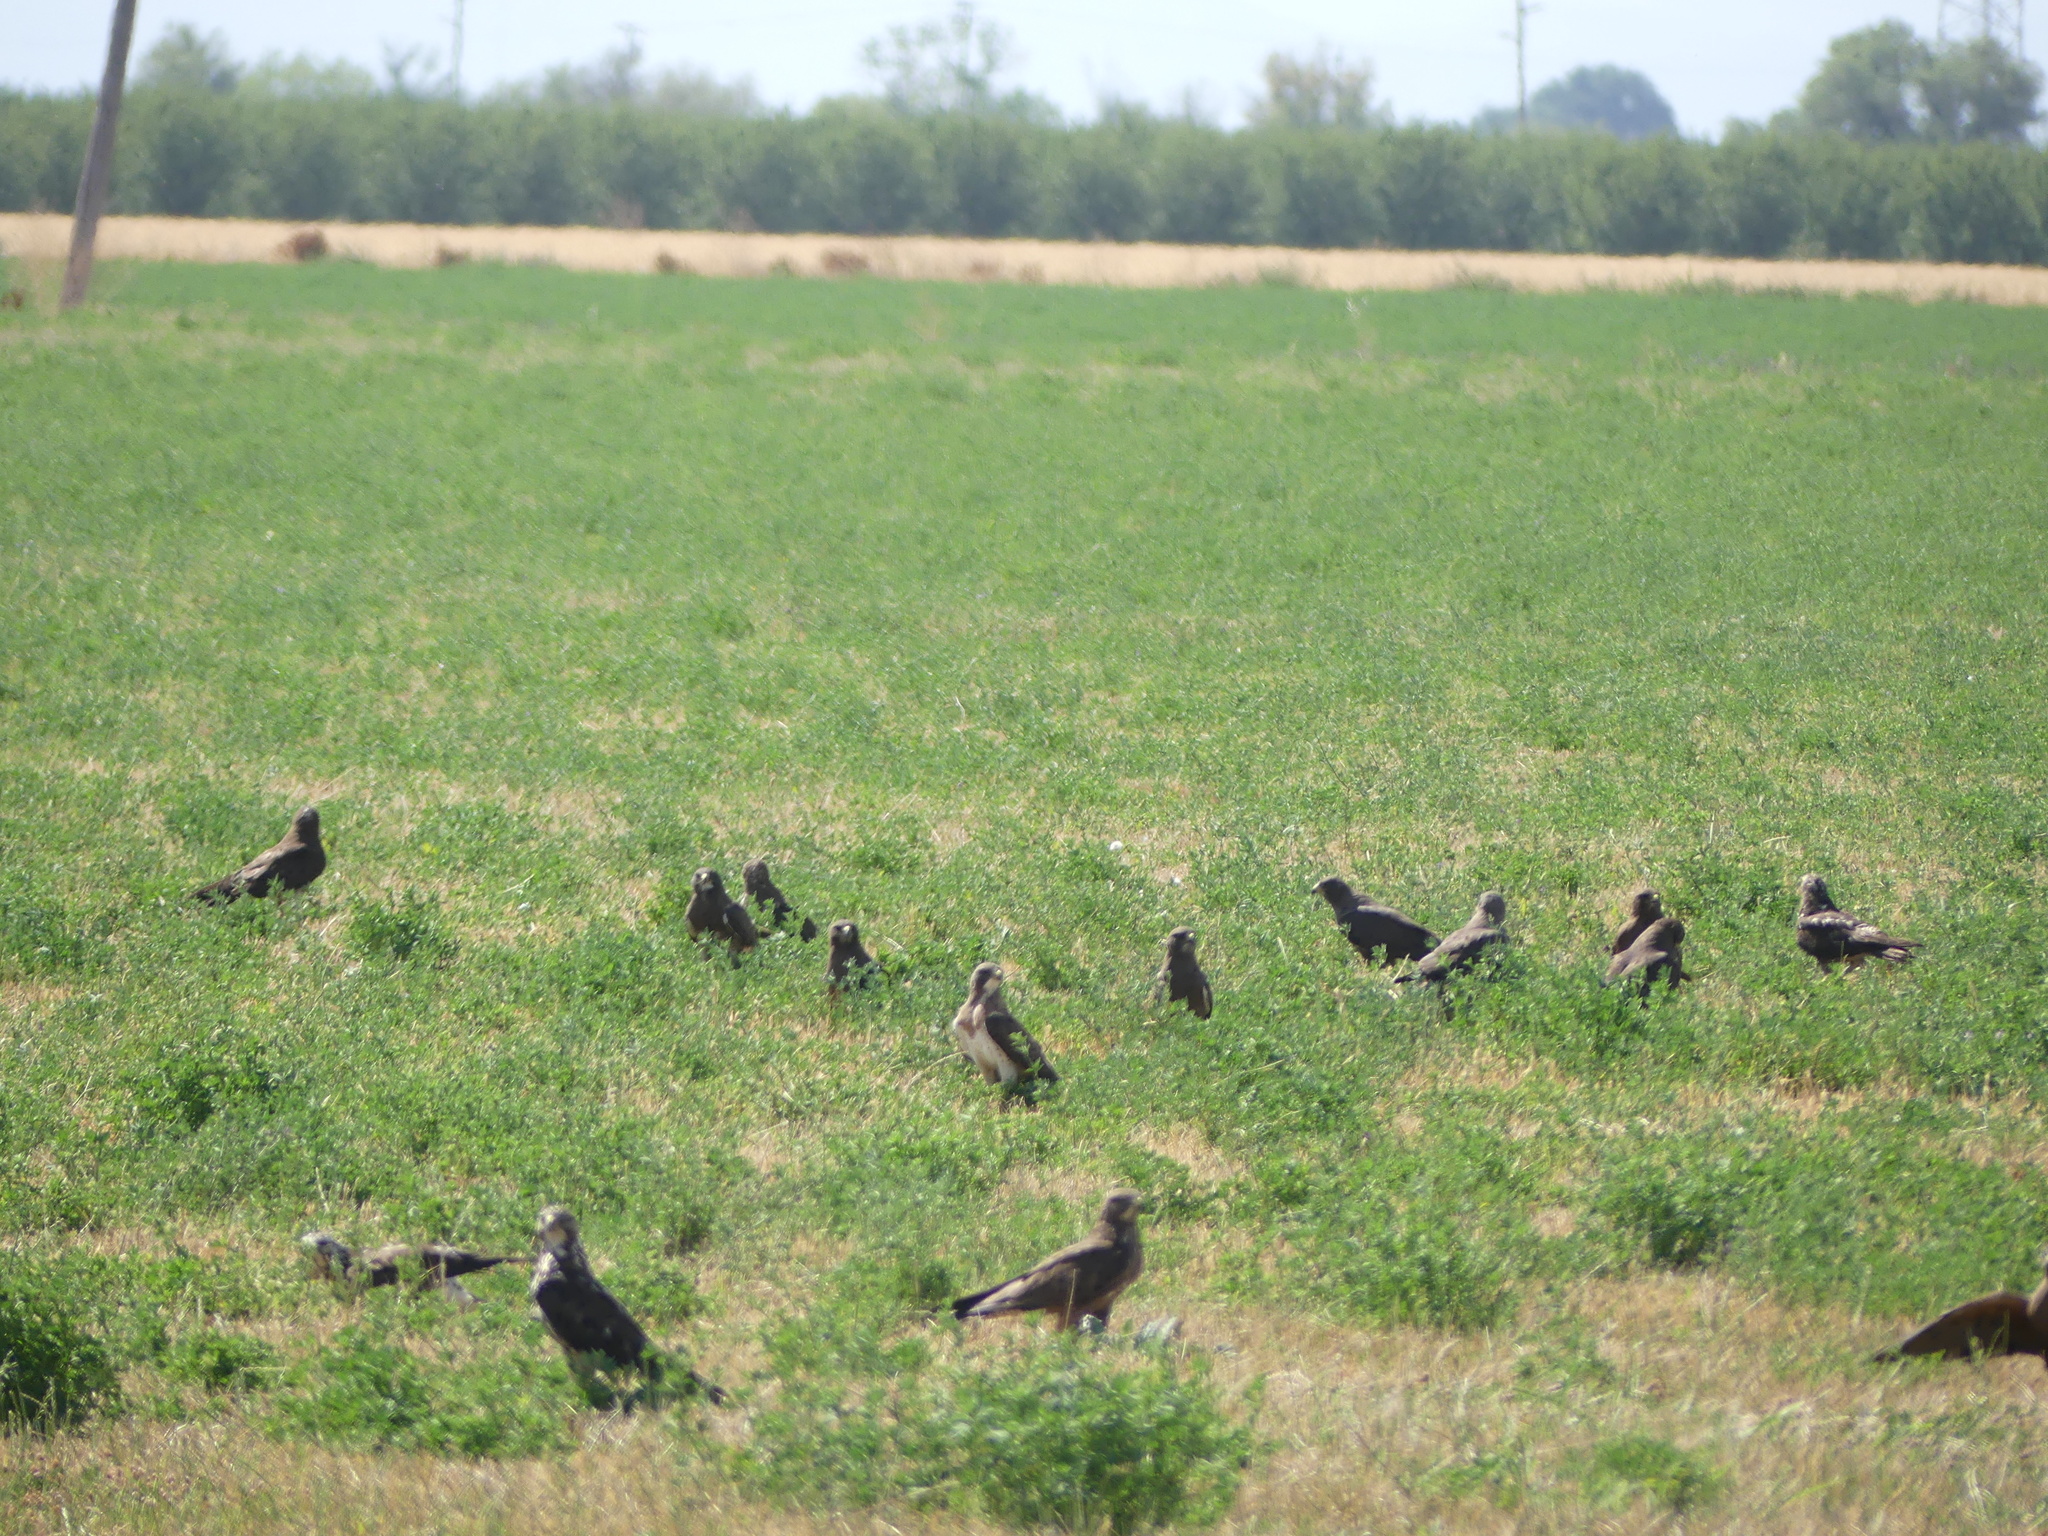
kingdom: Animalia
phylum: Chordata
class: Aves
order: Accipitriformes
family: Accipitridae
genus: Buteo
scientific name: Buteo swainsoni
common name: Swainson's hawk
